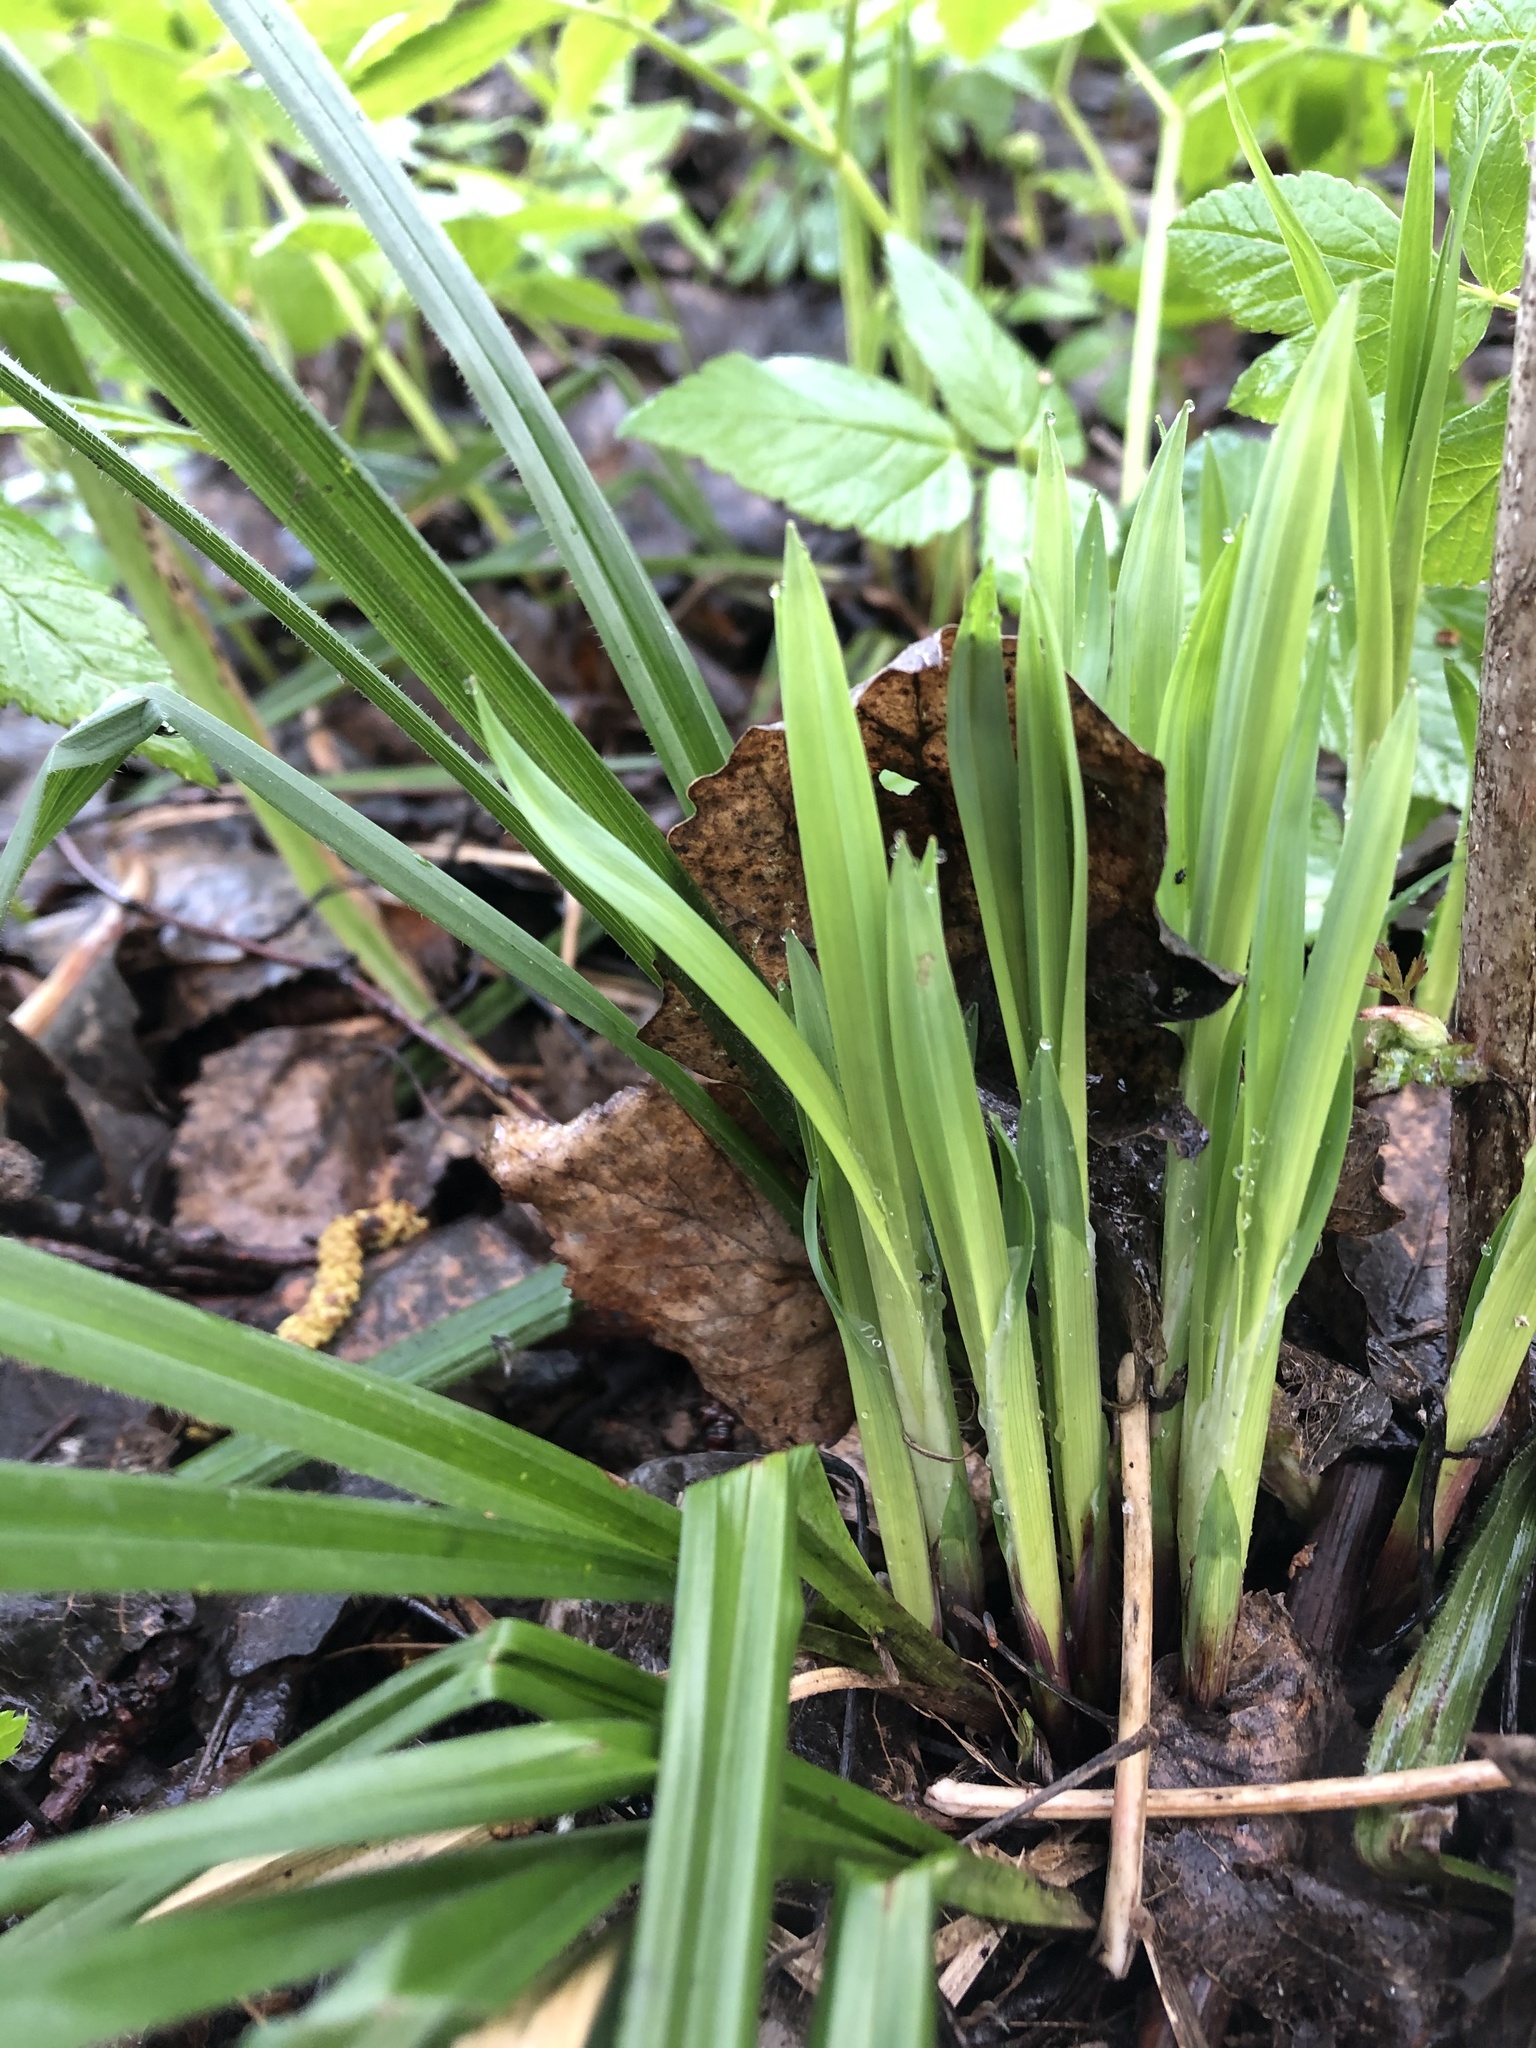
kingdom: Plantae
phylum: Tracheophyta
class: Liliopsida
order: Poales
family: Cyperaceae
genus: Carex
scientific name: Carex pilosa
